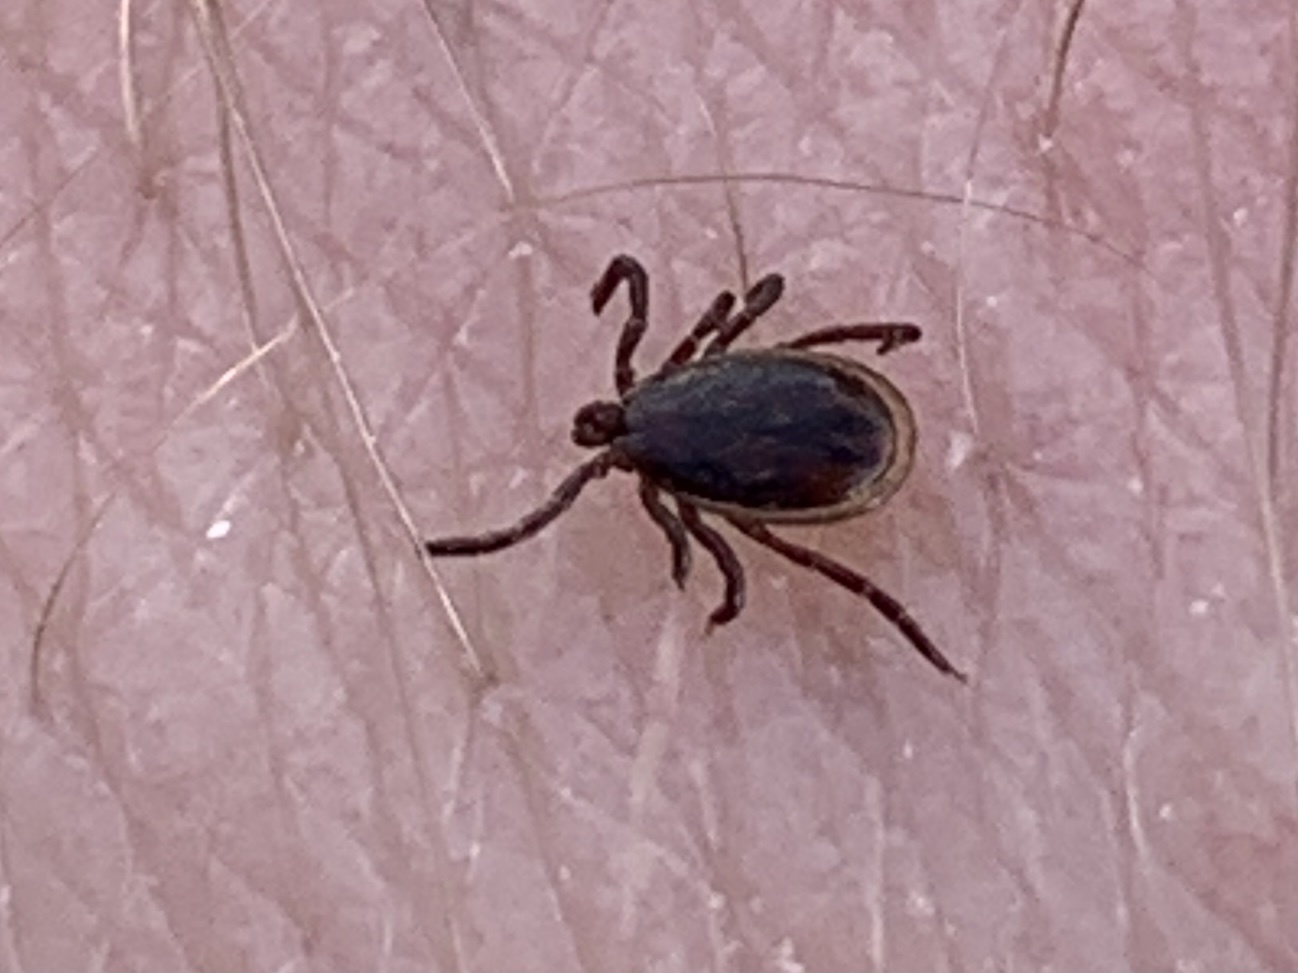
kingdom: Animalia
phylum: Arthropoda
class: Arachnida
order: Ixodida
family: Ixodidae
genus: Ixodes
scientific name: Ixodes scapularis
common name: Black legged tick
